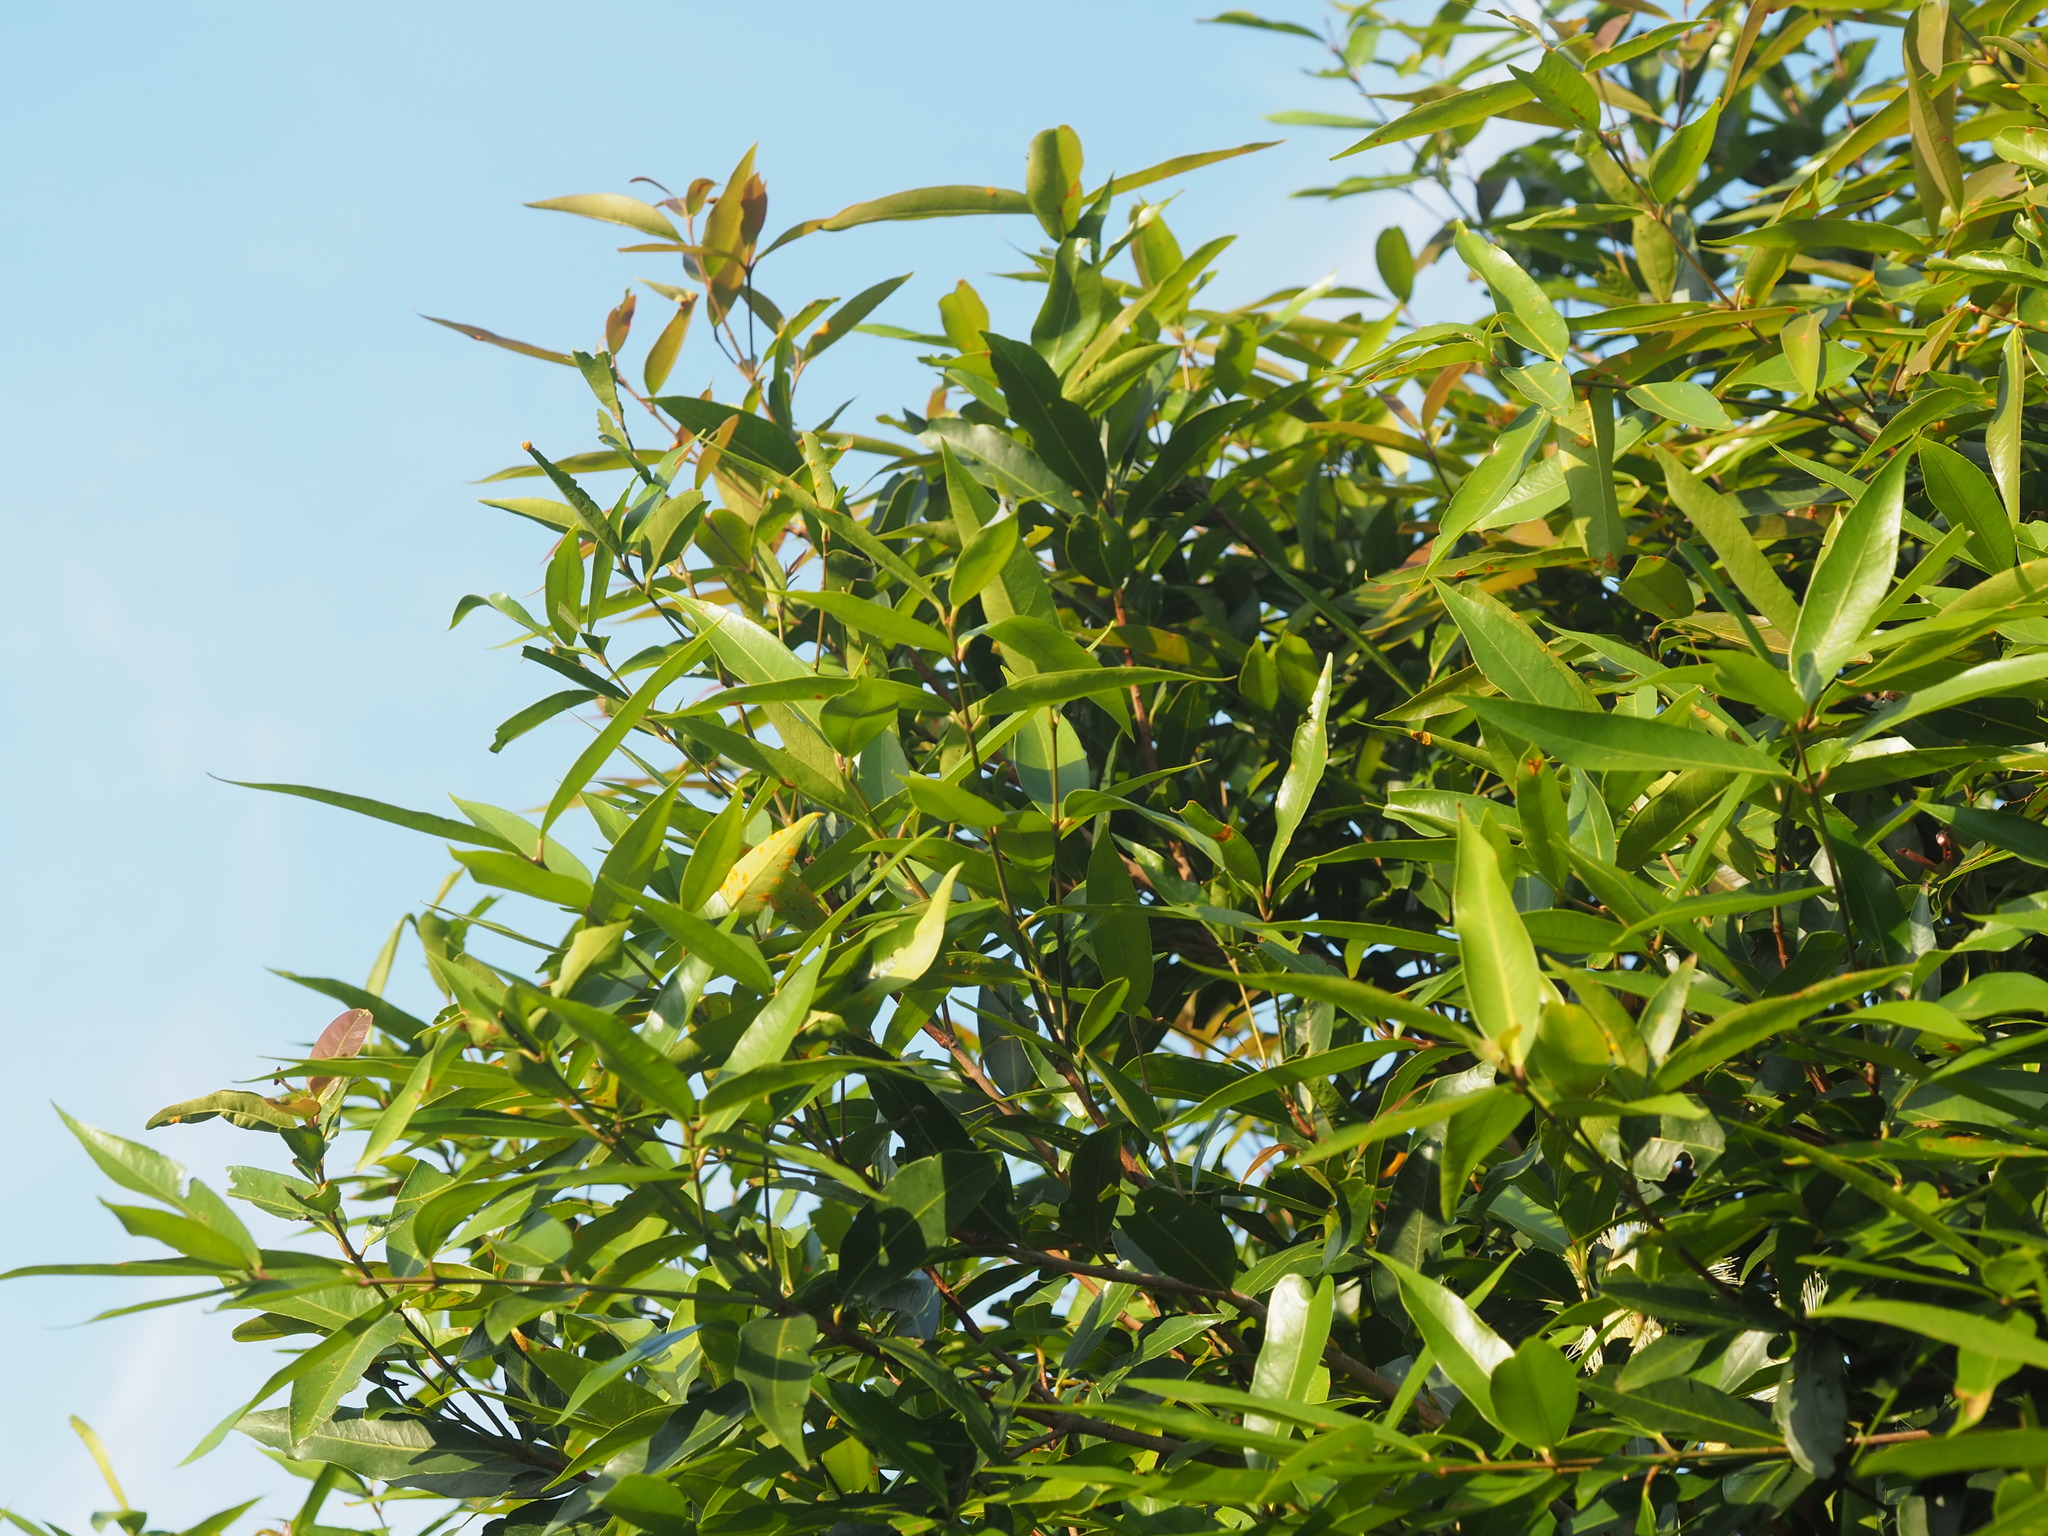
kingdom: Plantae
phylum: Tracheophyta
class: Magnoliopsida
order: Myrtales
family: Myrtaceae
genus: Syzygium
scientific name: Syzygium jambos
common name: Malabar plum
